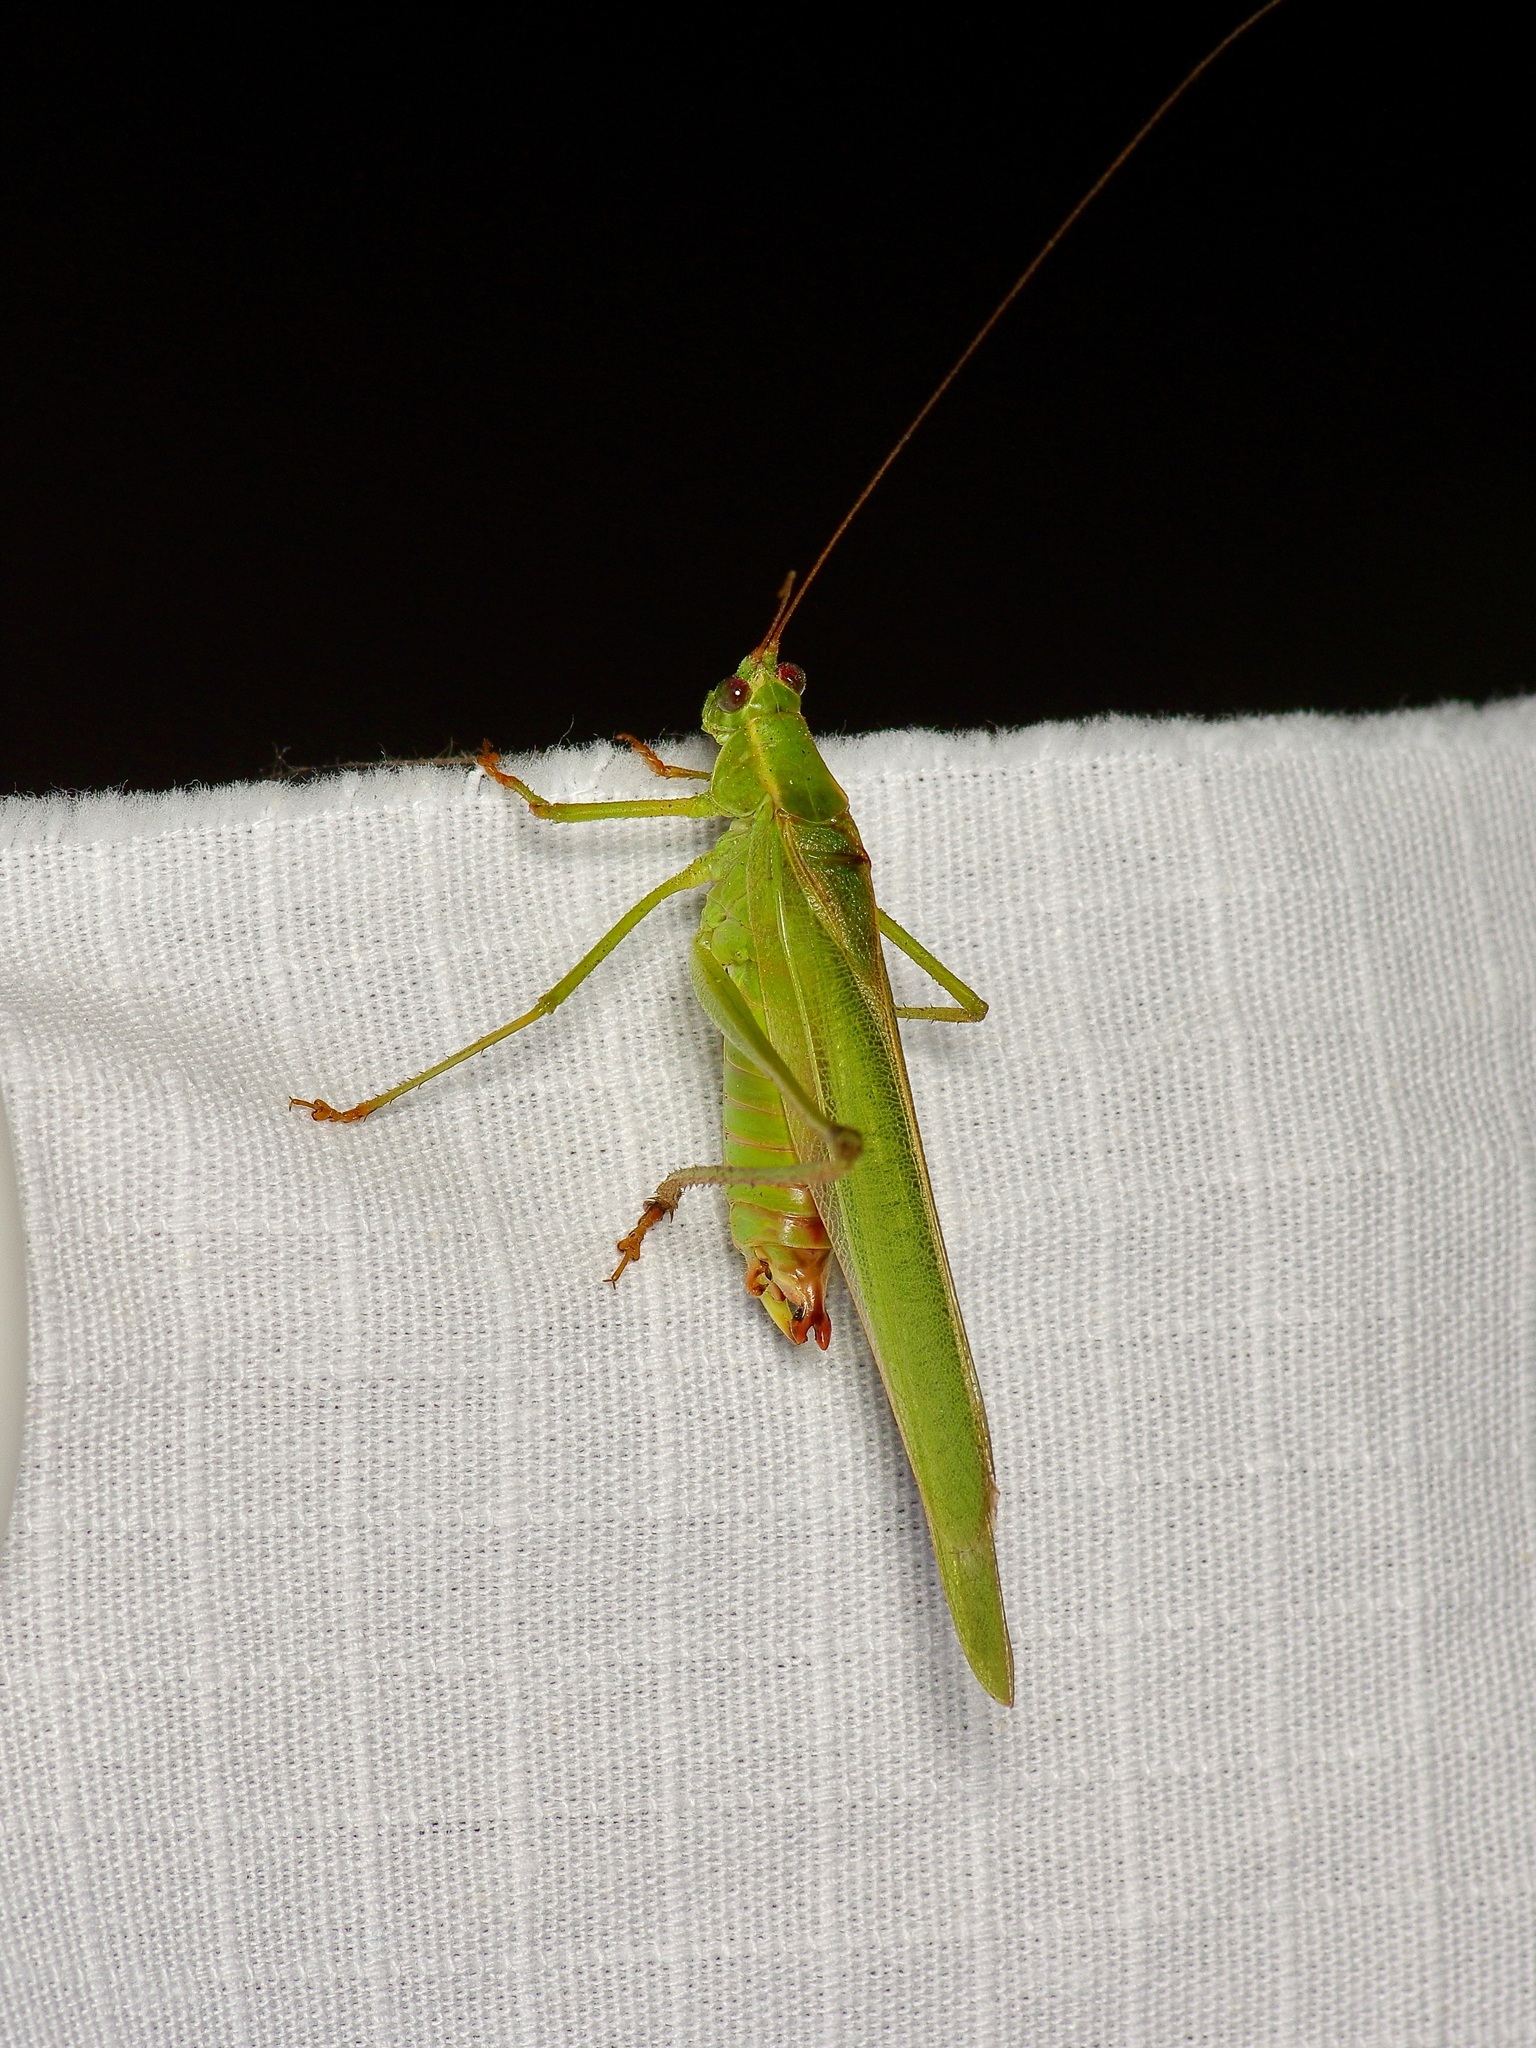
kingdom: Animalia
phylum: Arthropoda
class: Insecta
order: Orthoptera
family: Tettigoniidae
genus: Scudderia
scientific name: Scudderia furcata
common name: Fork-tailed bush katydid
